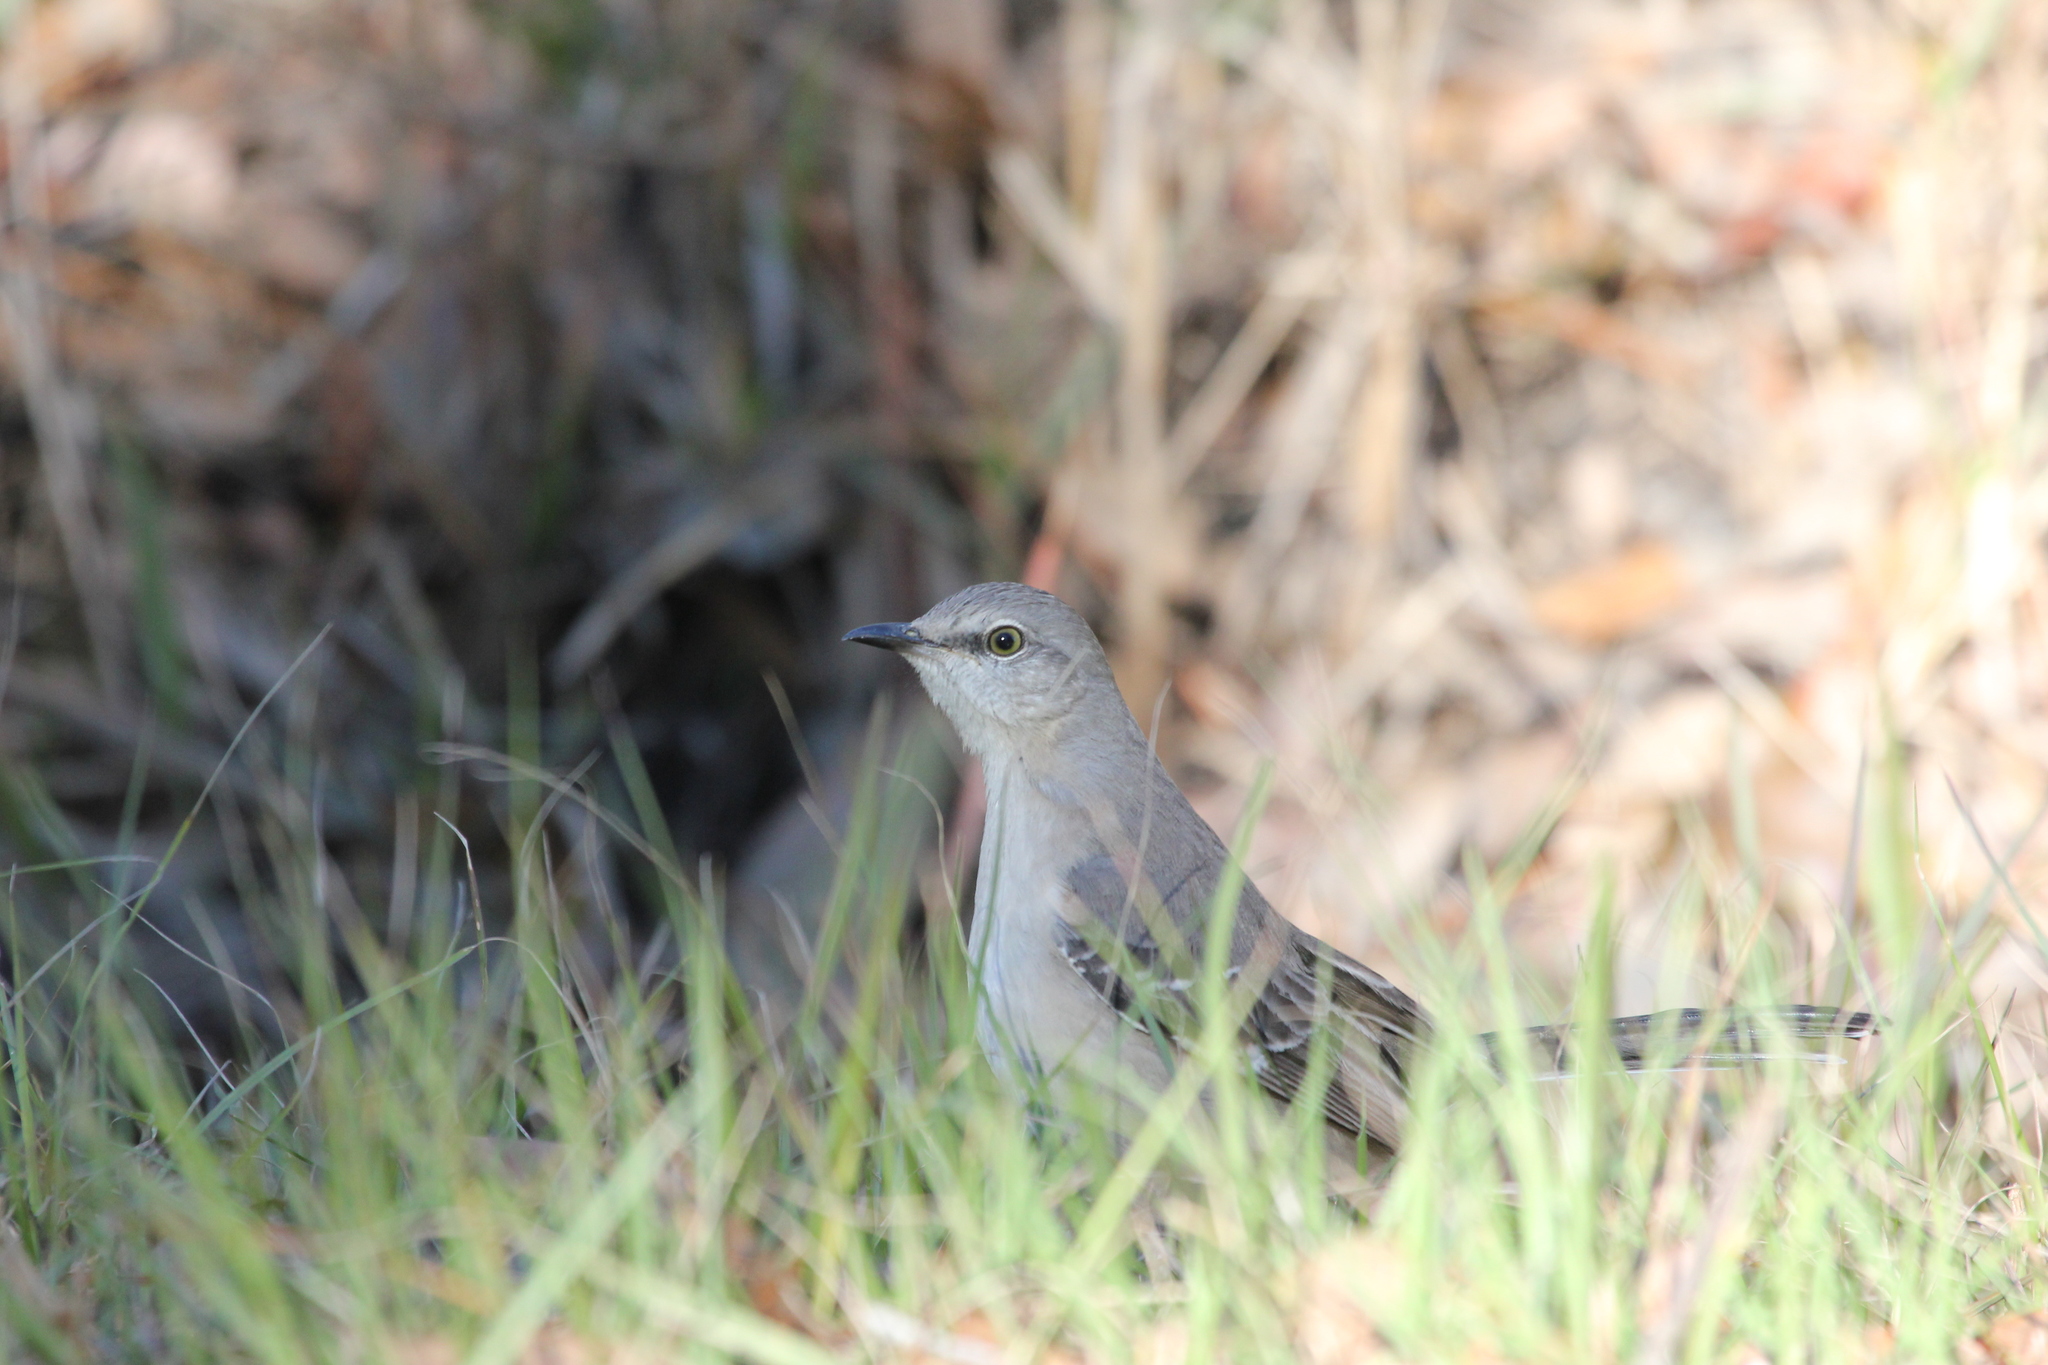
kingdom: Animalia
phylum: Chordata
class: Aves
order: Passeriformes
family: Mimidae
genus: Mimus
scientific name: Mimus polyglottos
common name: Northern mockingbird
